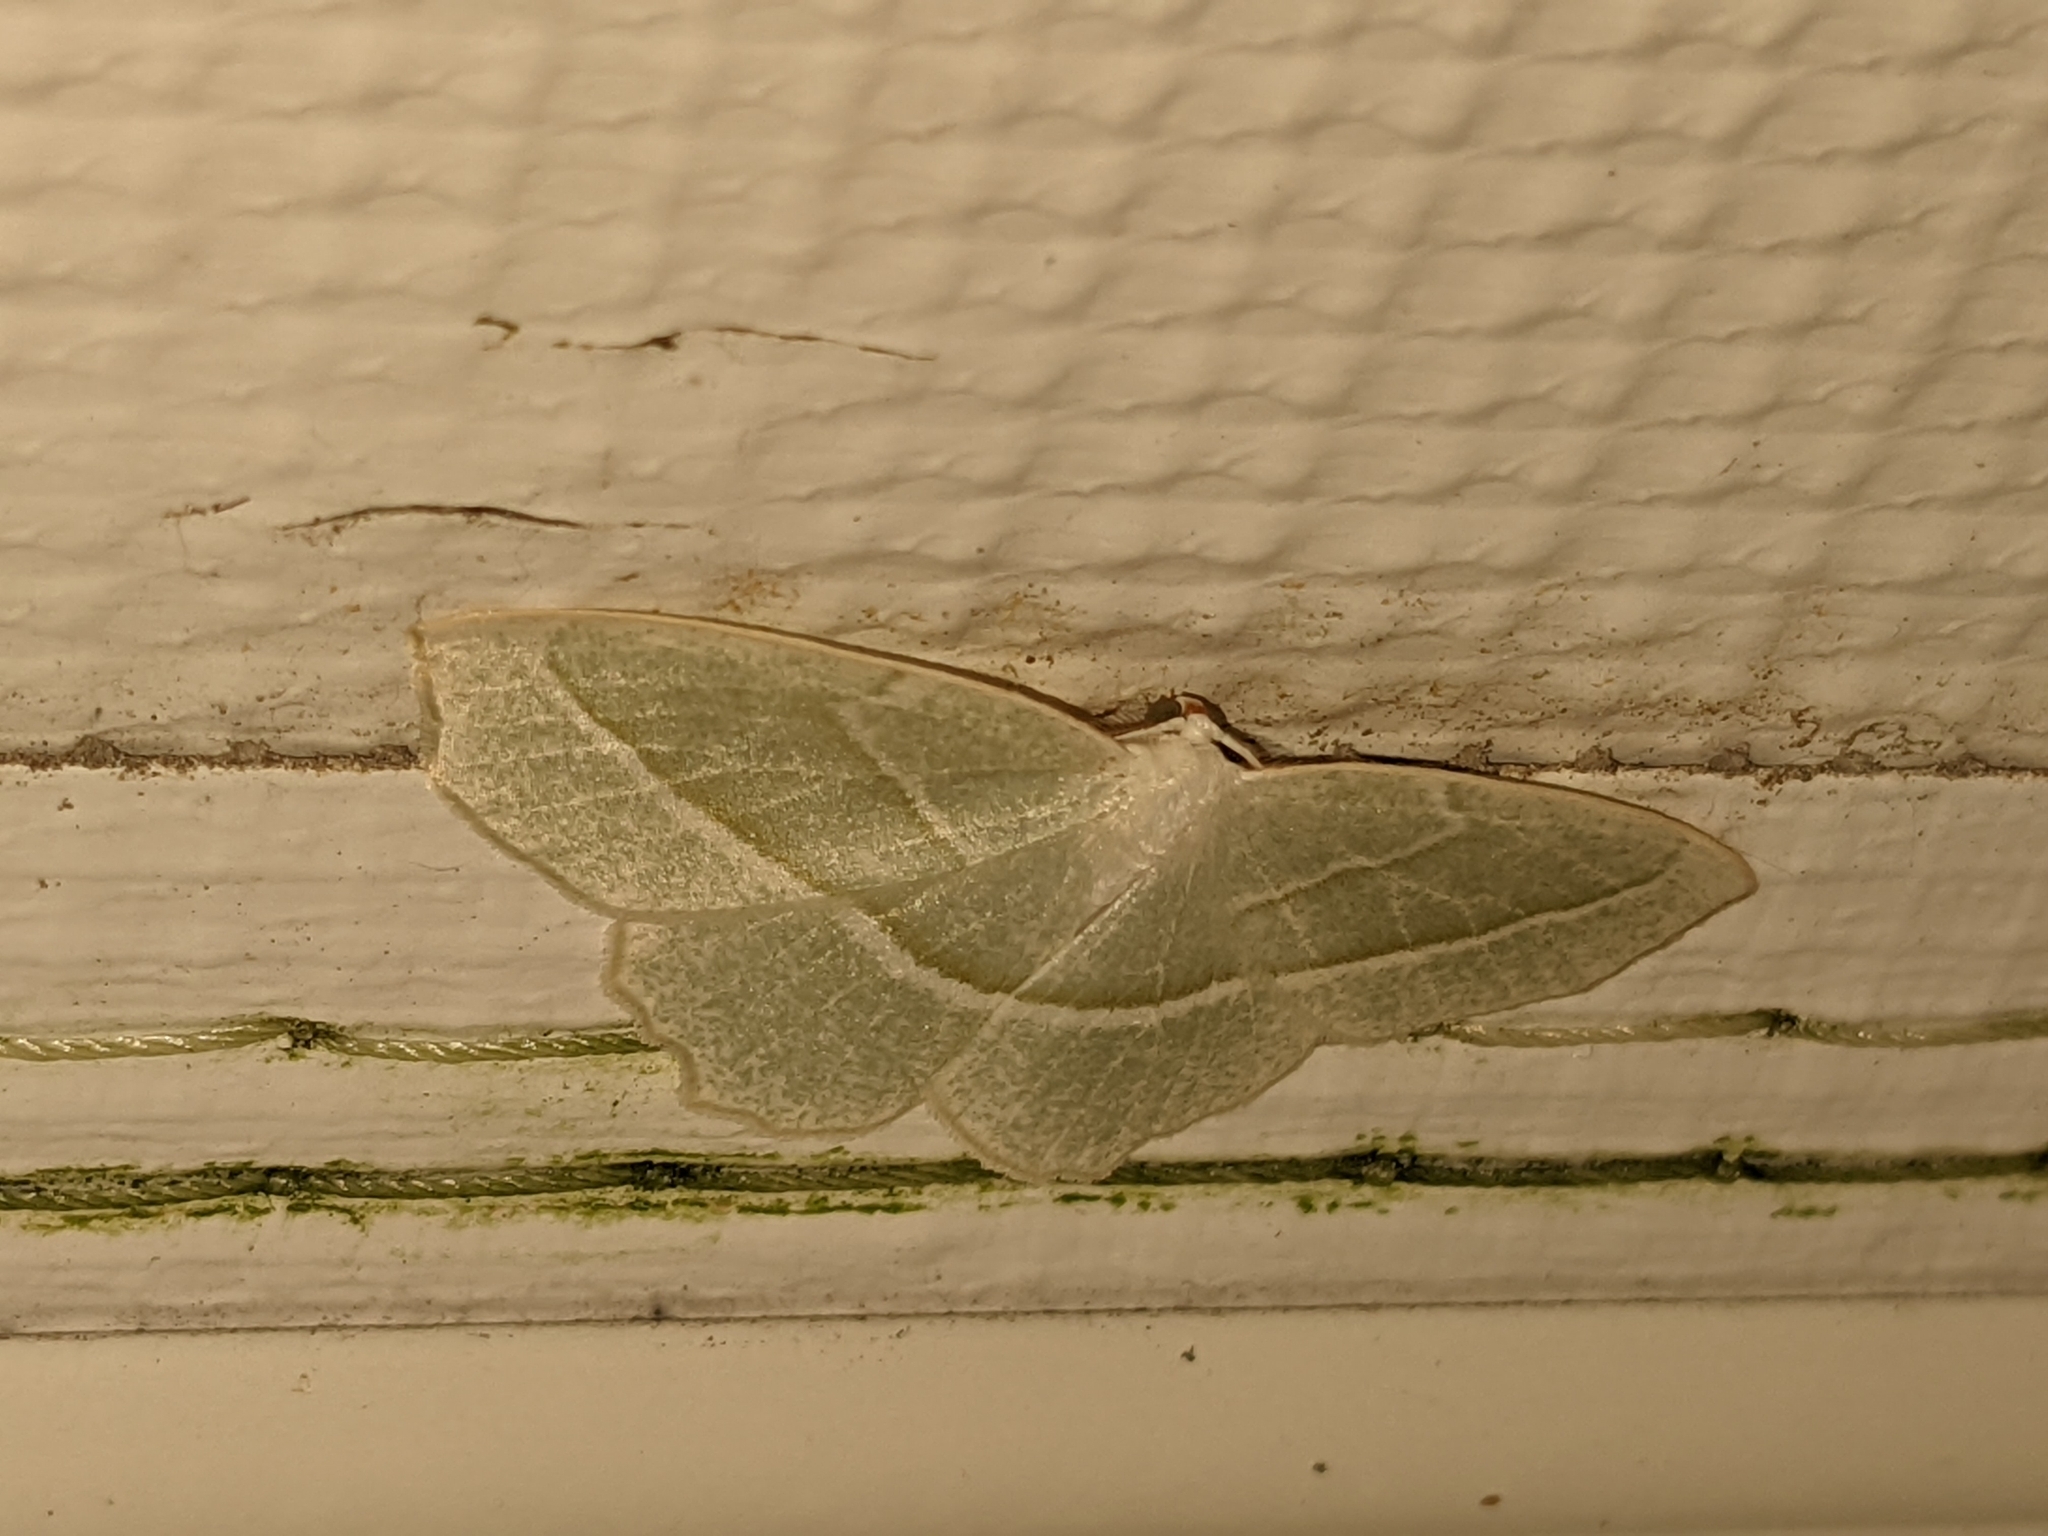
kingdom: Animalia
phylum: Arthropoda
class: Insecta
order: Lepidoptera
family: Geometridae
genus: Campaea
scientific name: Campaea perlata
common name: Fringed looper
